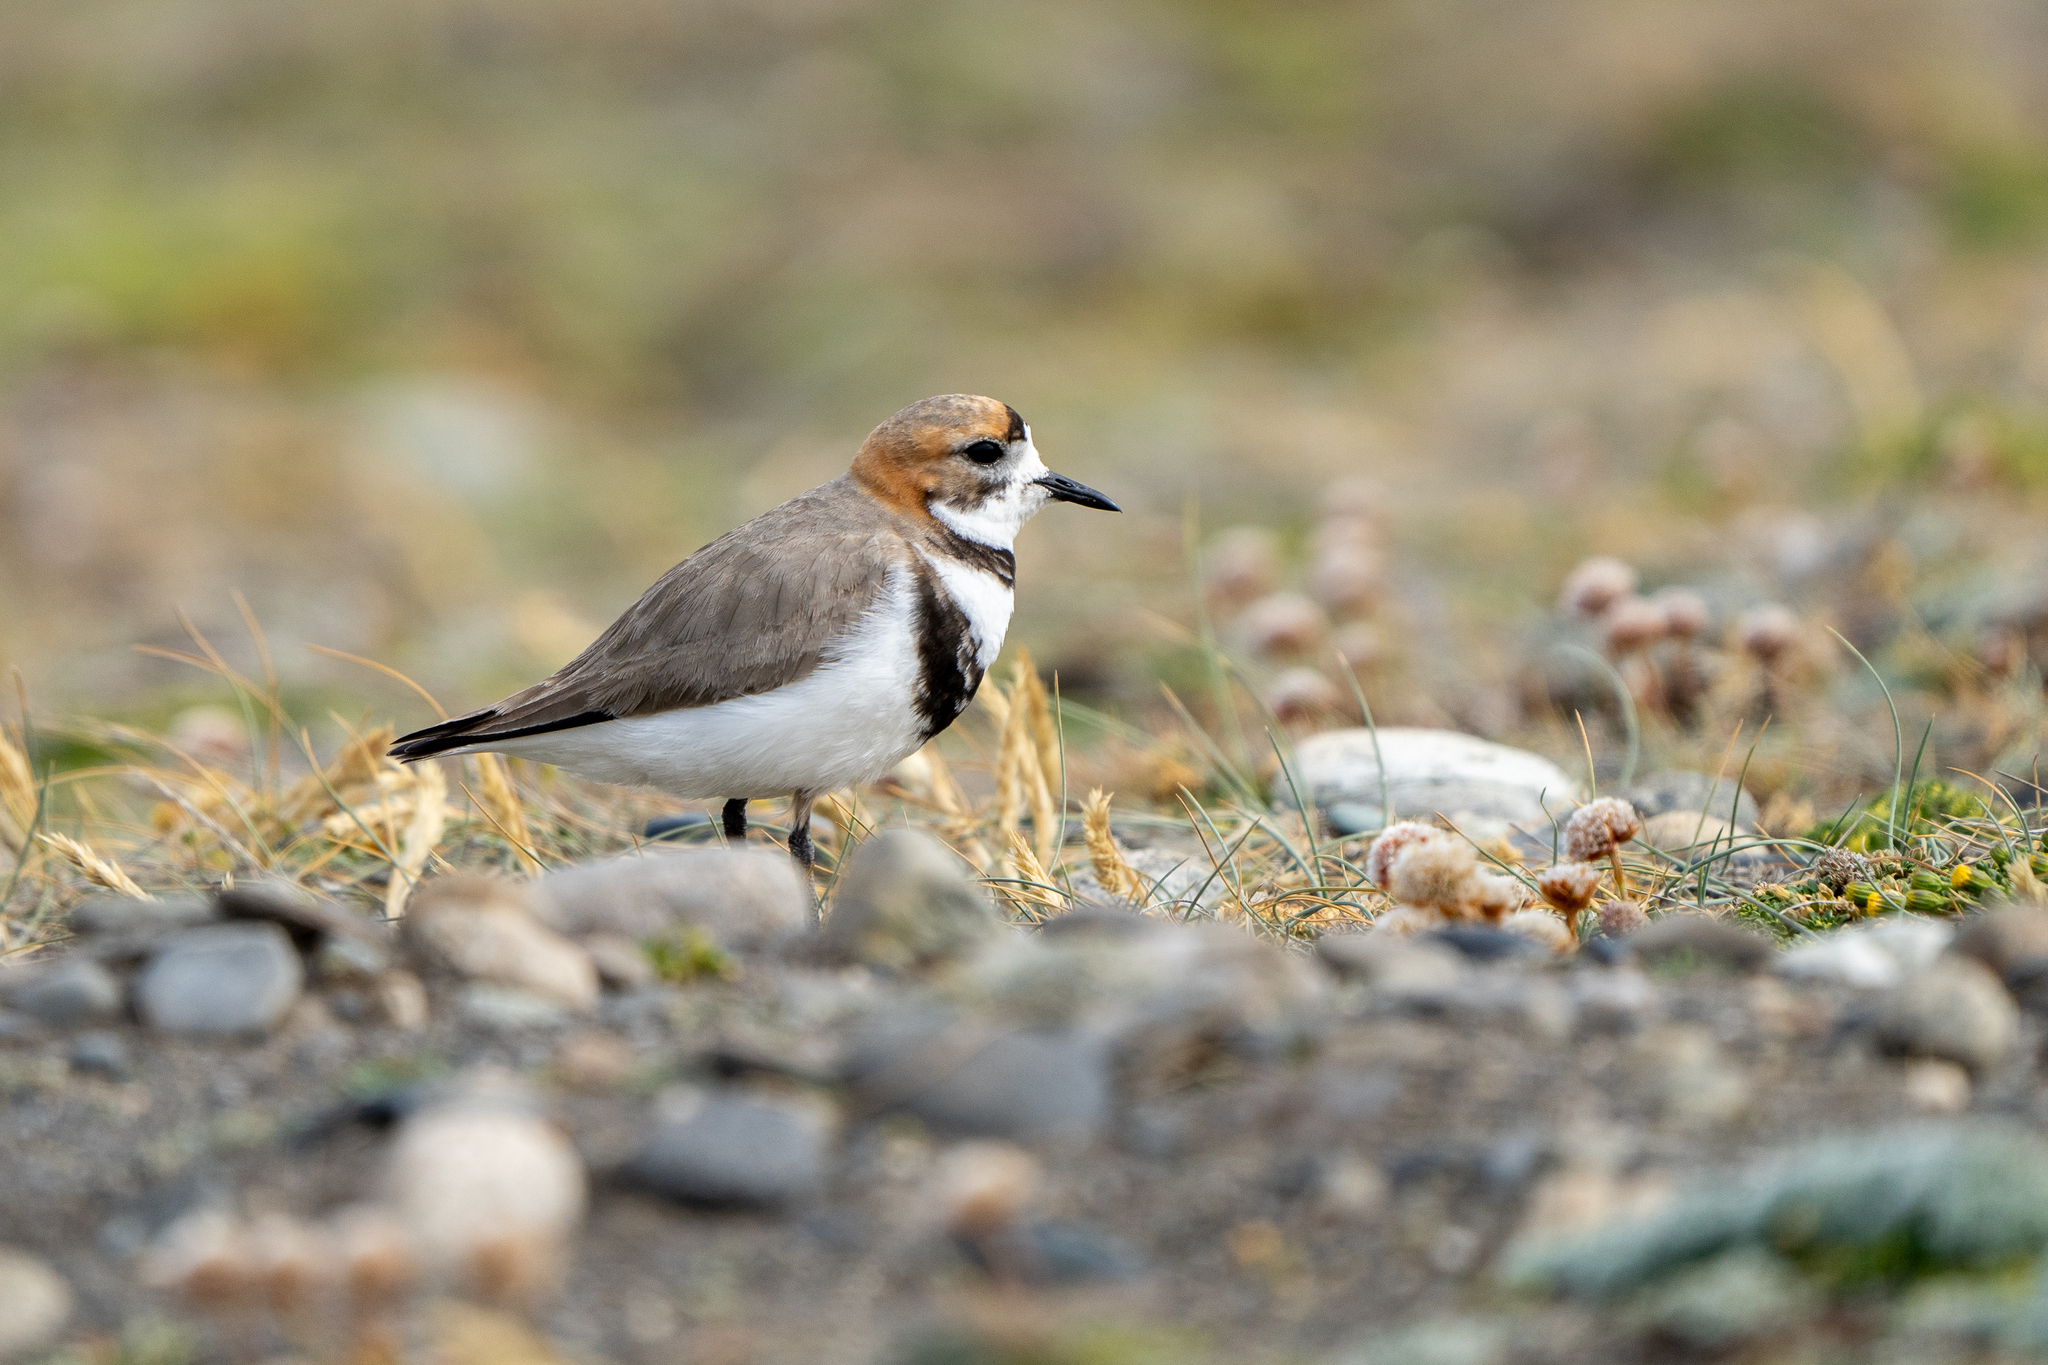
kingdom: Animalia
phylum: Chordata
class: Aves
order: Charadriiformes
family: Charadriidae
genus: Anarhynchus
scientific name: Anarhynchus
